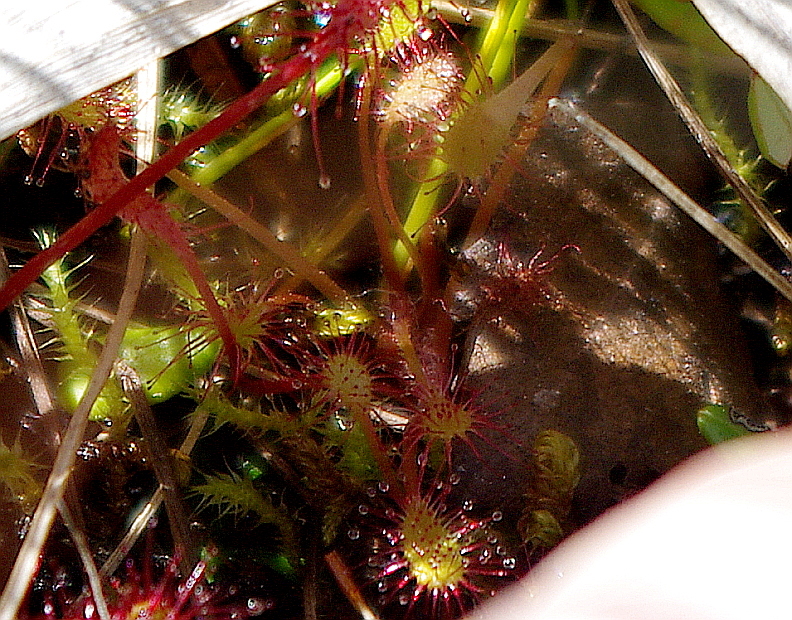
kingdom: Plantae
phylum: Tracheophyta
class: Magnoliopsida
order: Caryophyllales
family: Droseraceae
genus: Drosera
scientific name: Drosera obovata
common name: Ivan's paddle
